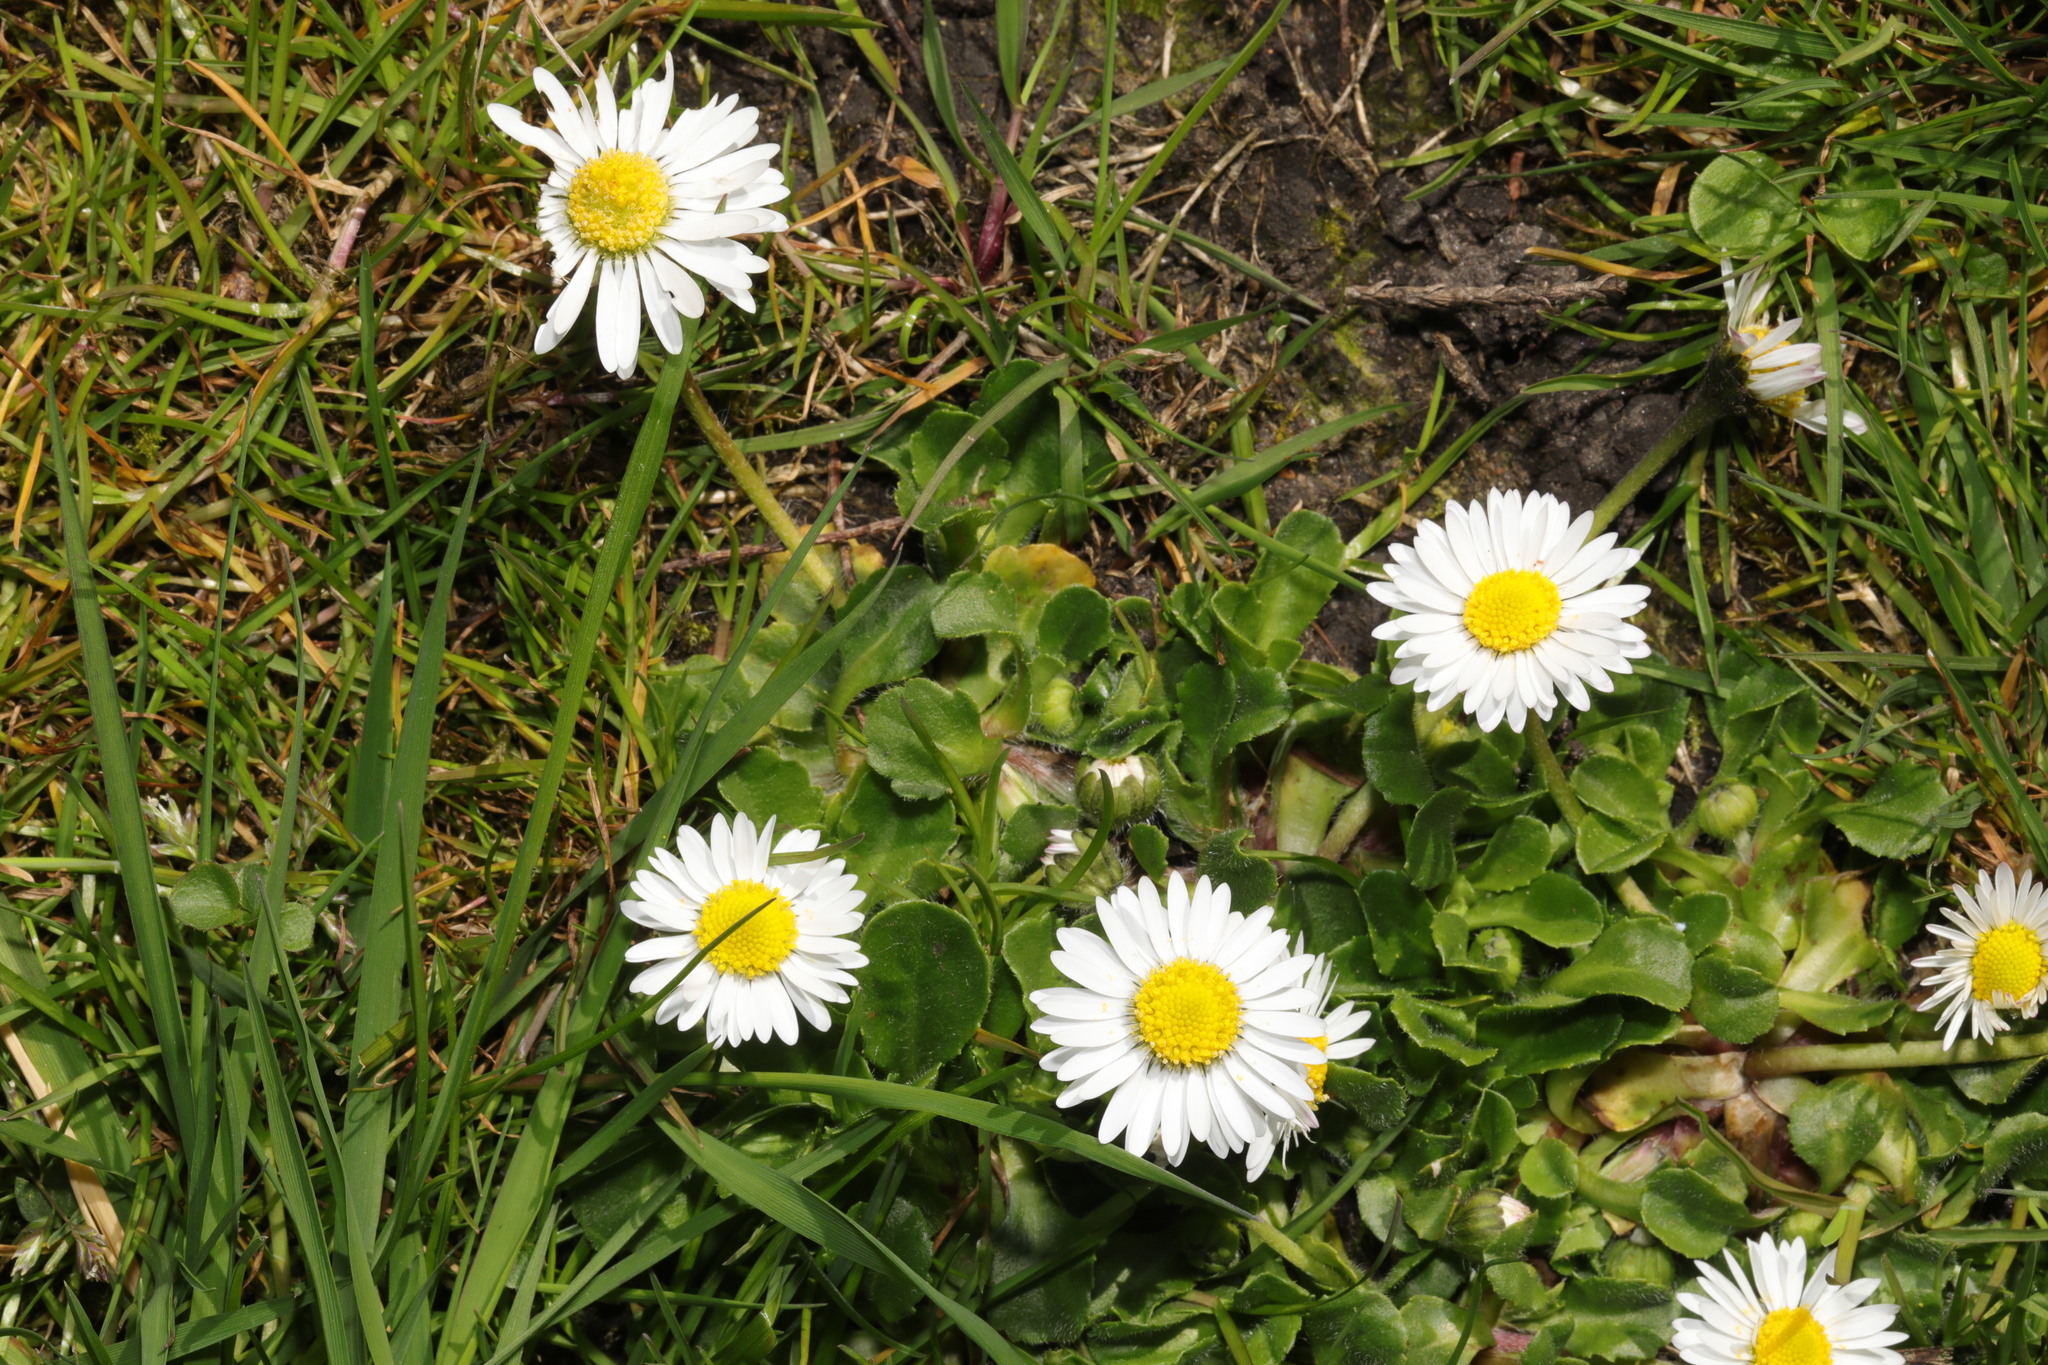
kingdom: Plantae
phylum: Tracheophyta
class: Magnoliopsida
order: Asterales
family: Asteraceae
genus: Bellis
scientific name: Bellis perennis
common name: Lawndaisy
